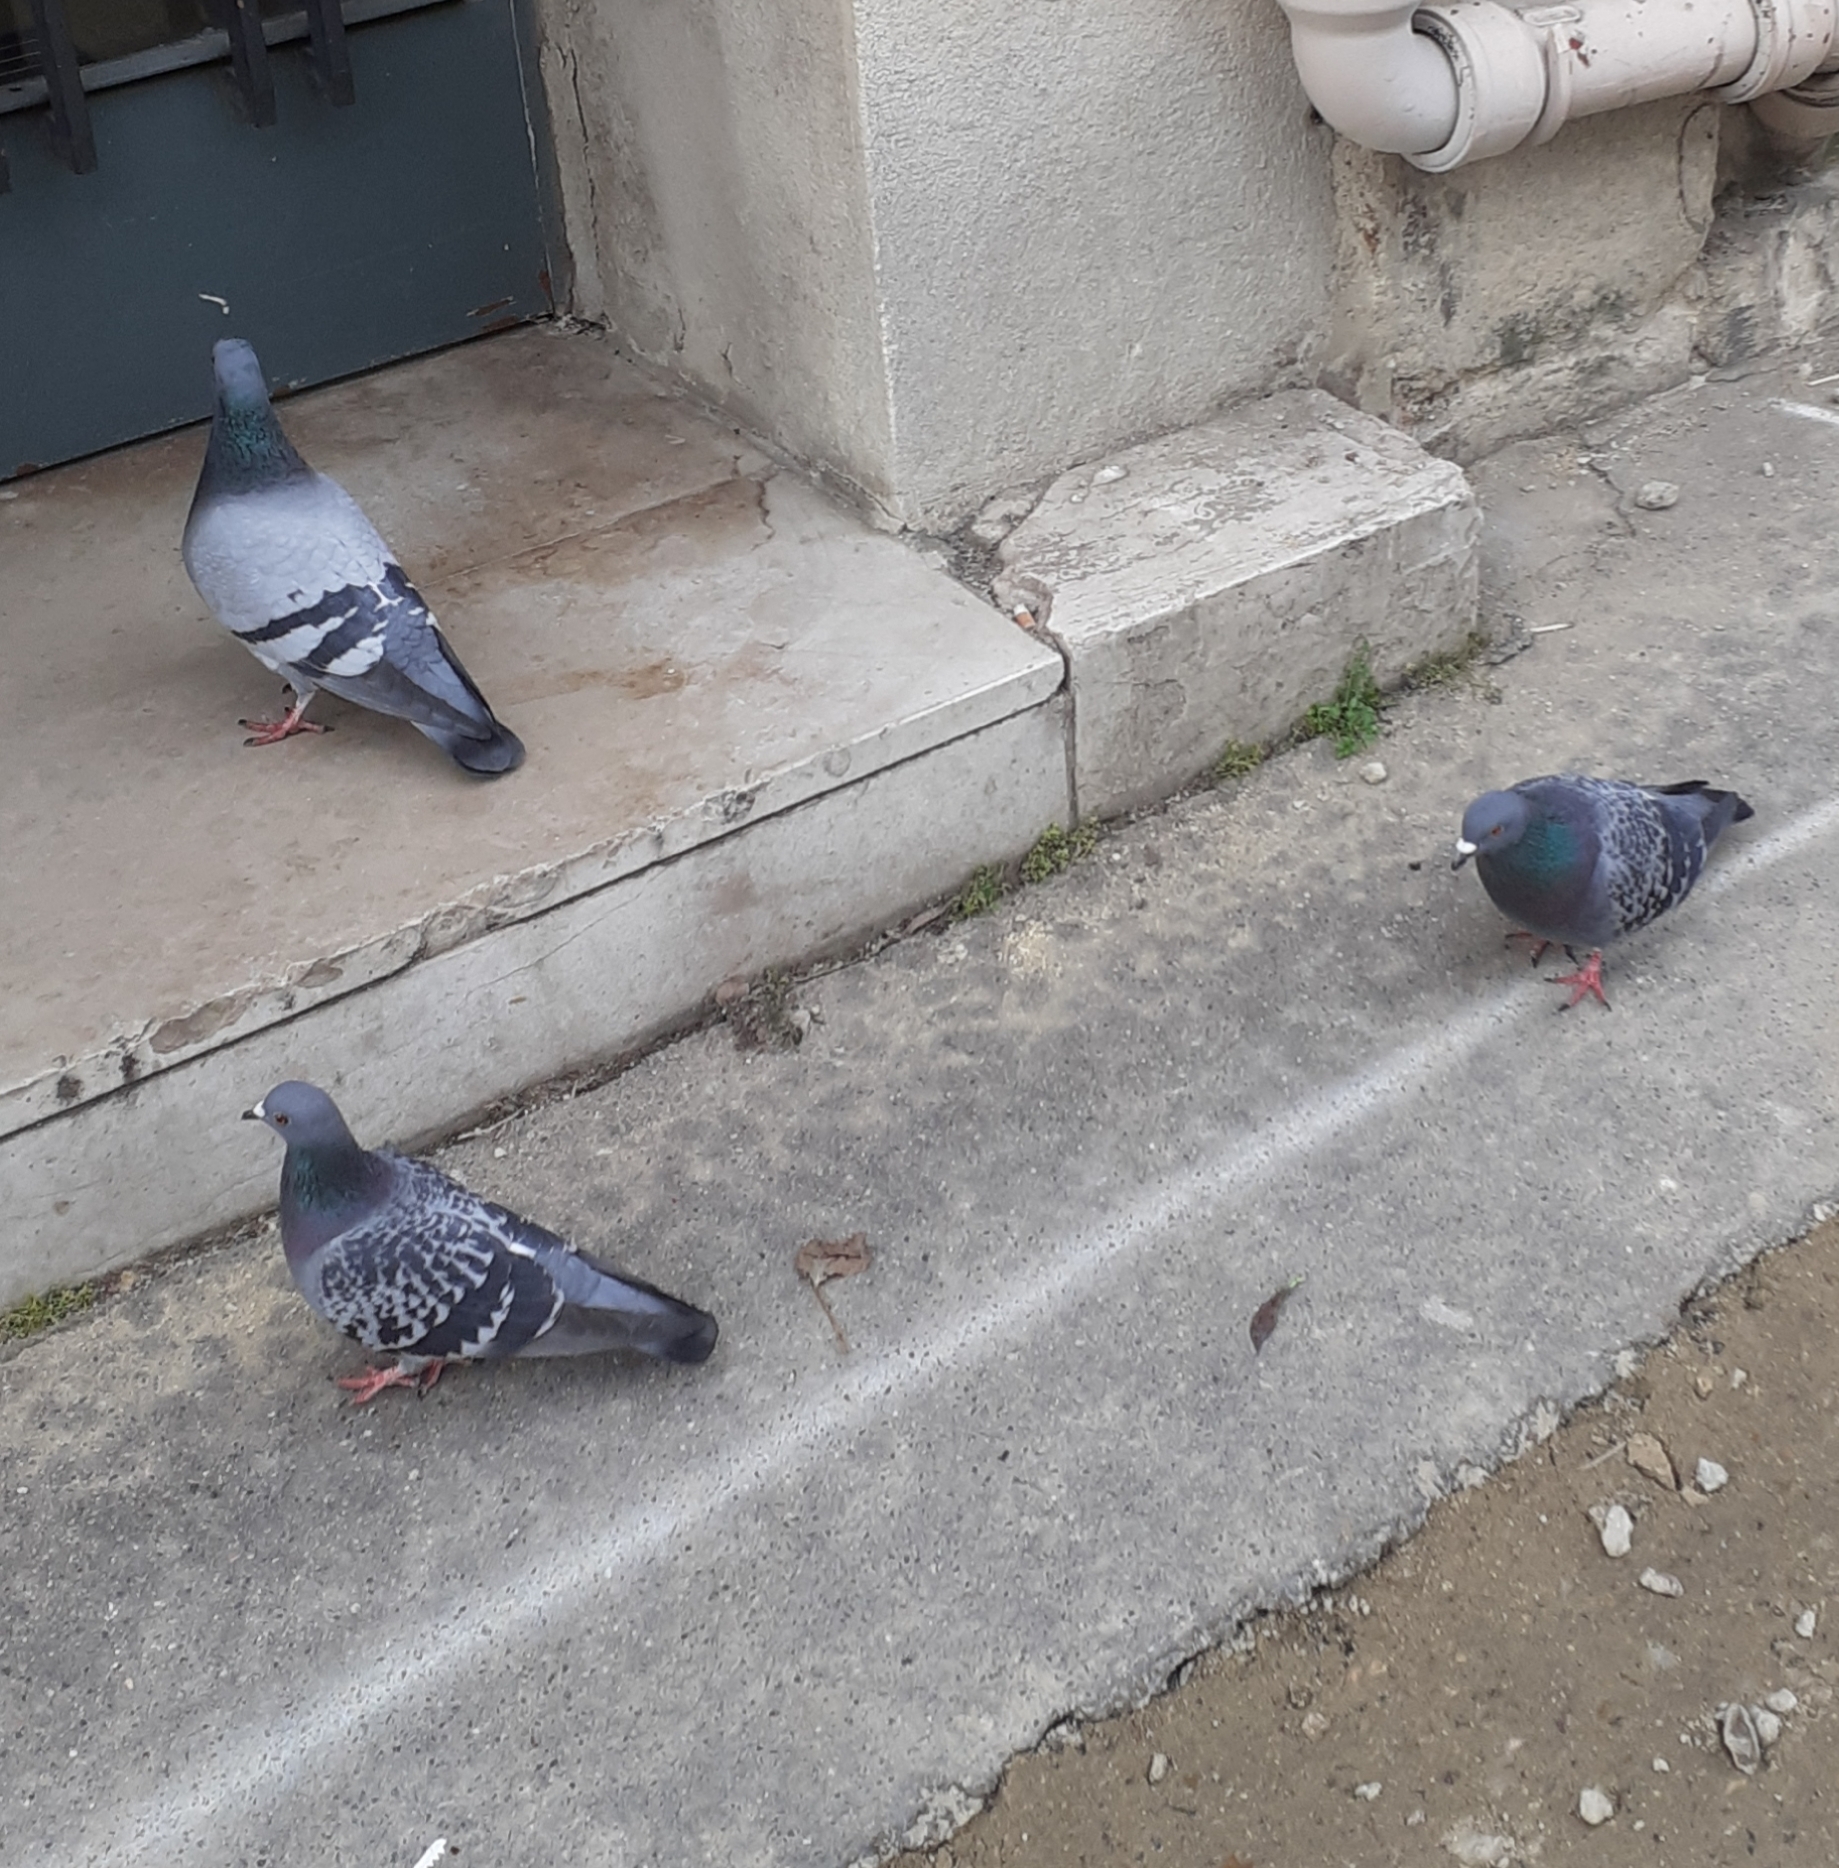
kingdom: Animalia
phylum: Chordata
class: Aves
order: Columbiformes
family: Columbidae
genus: Columba
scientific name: Columba livia
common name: Rock pigeon
